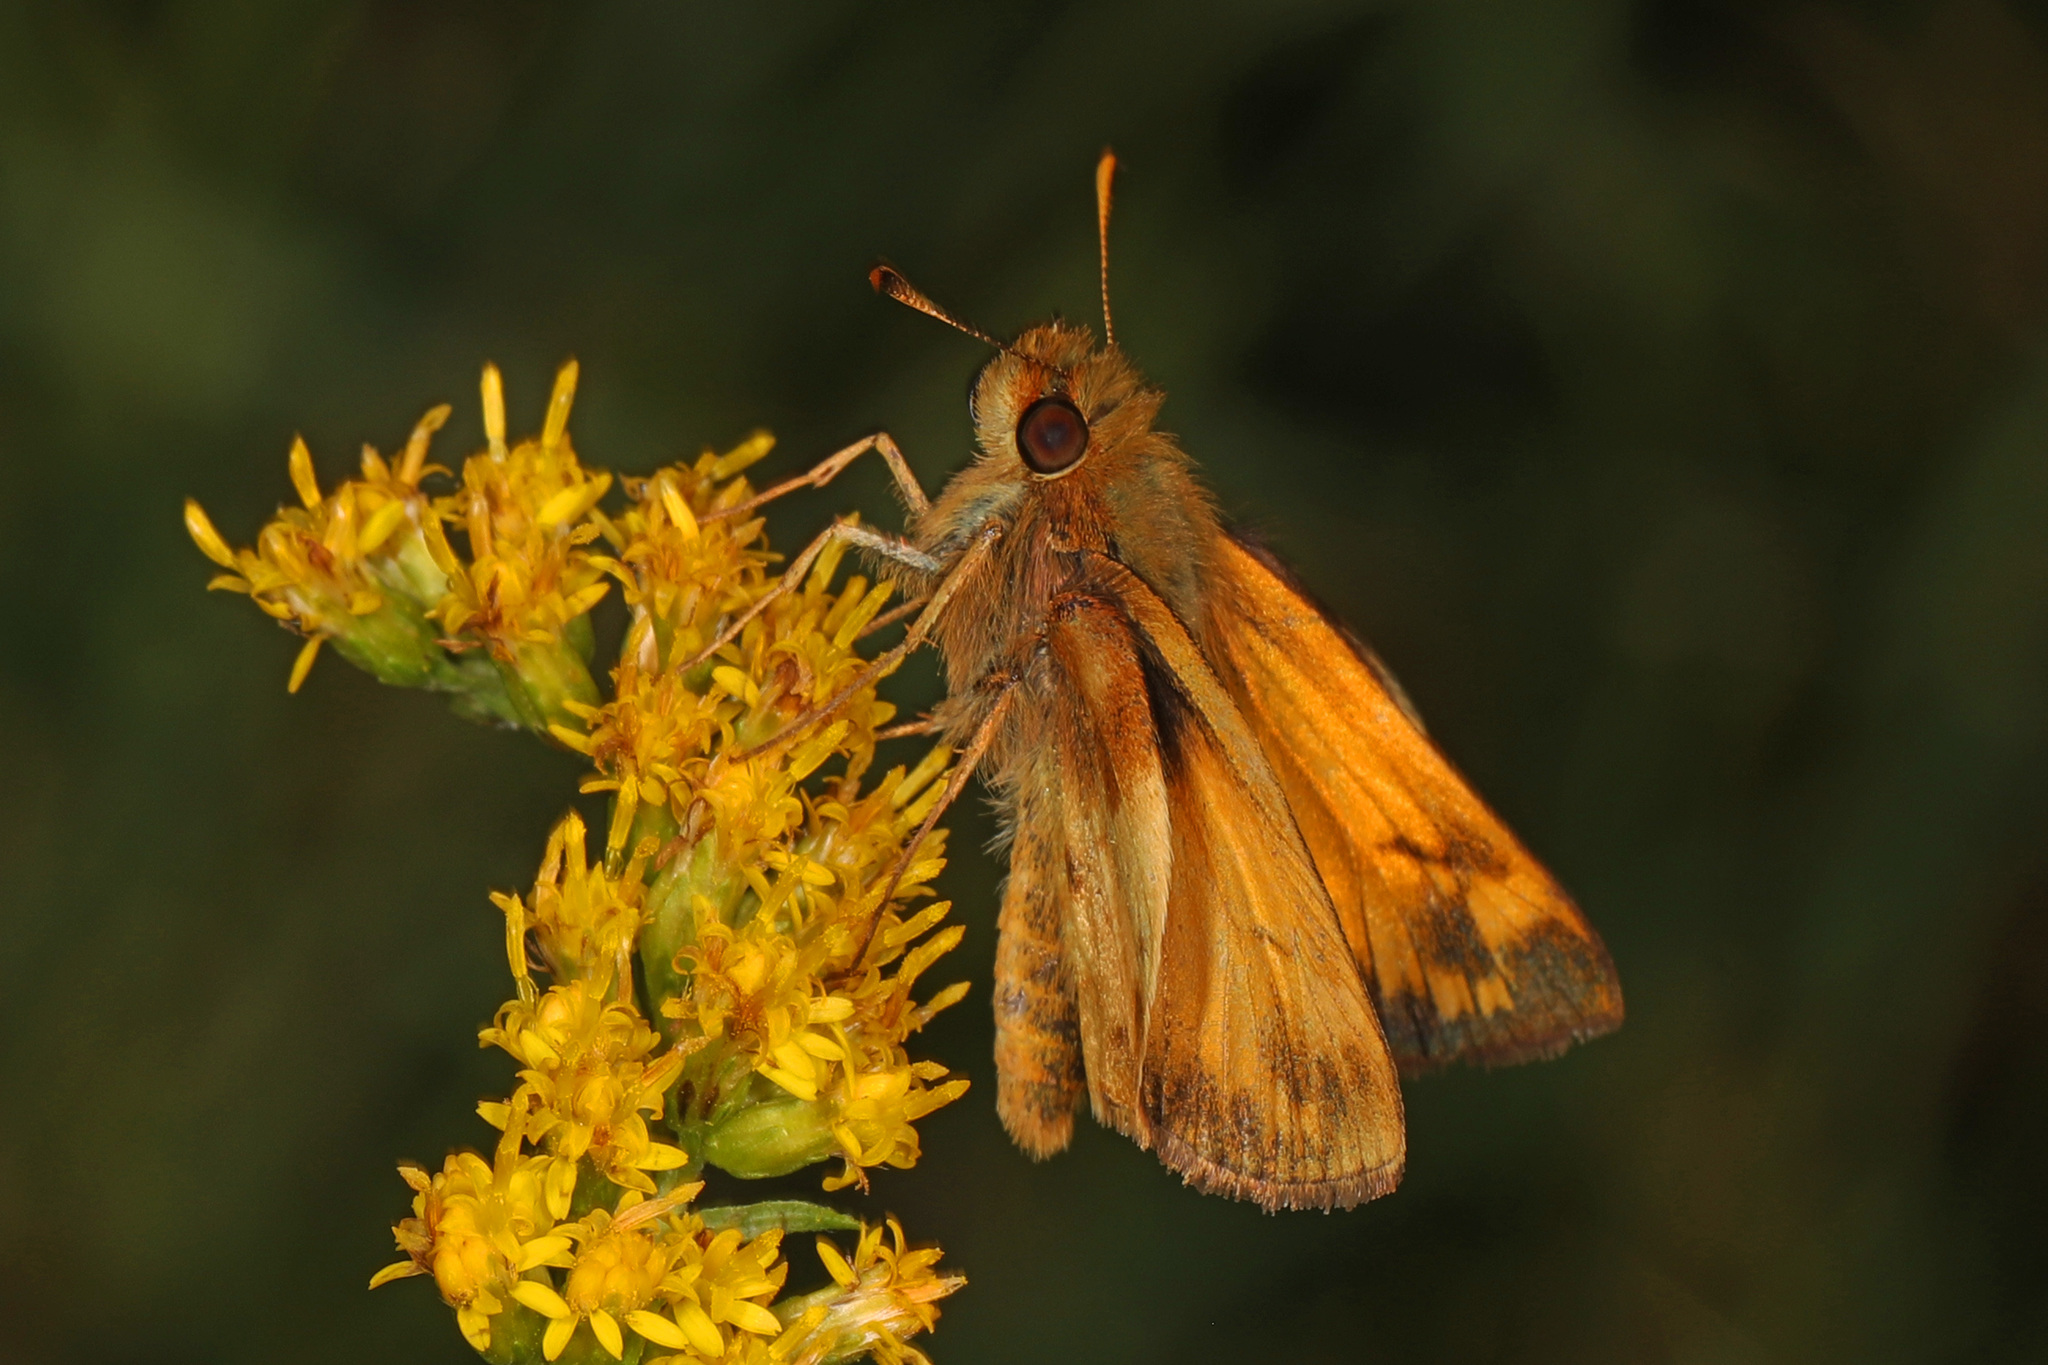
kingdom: Animalia
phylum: Arthropoda
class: Insecta
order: Lepidoptera
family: Hesperiidae
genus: Lon
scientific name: Lon zabulon
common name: Zabulon skipper
